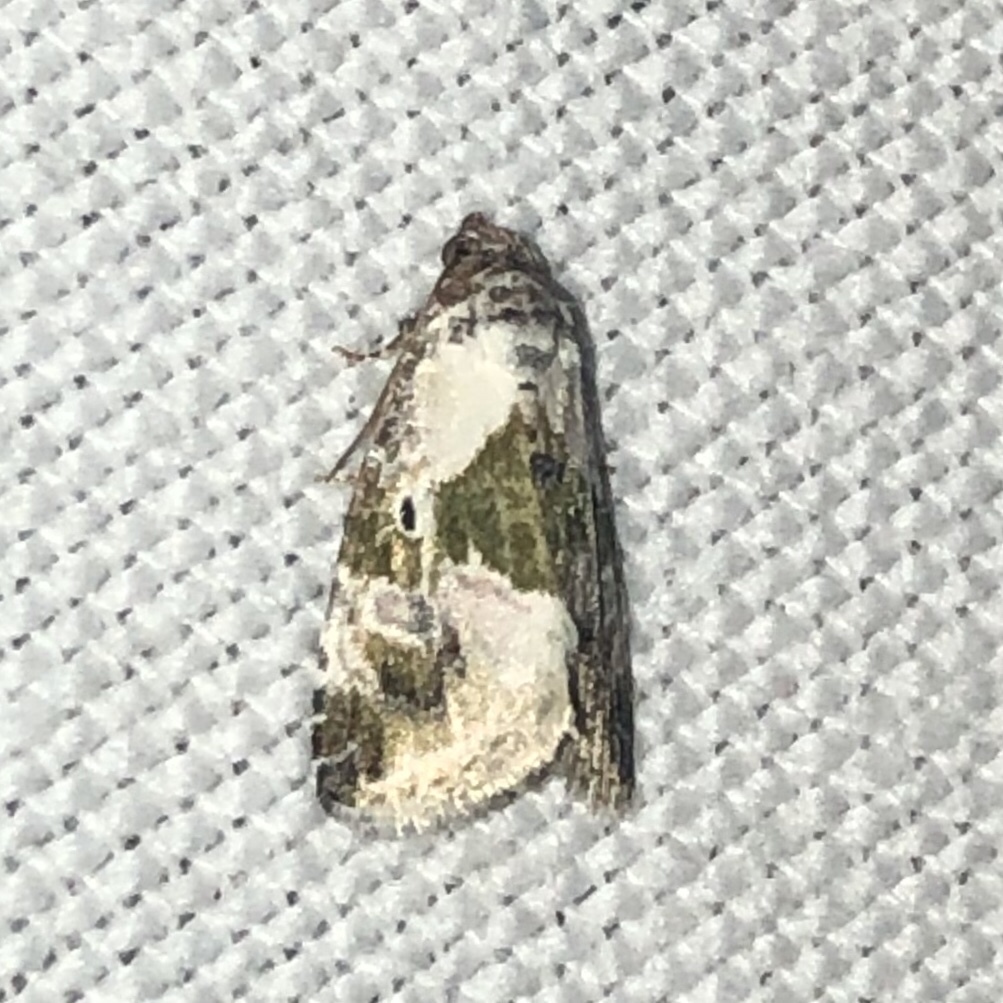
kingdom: Animalia
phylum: Arthropoda
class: Insecta
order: Lepidoptera
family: Noctuidae
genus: Maliattha
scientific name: Maliattha synochitis
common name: Black-dotted glyph
